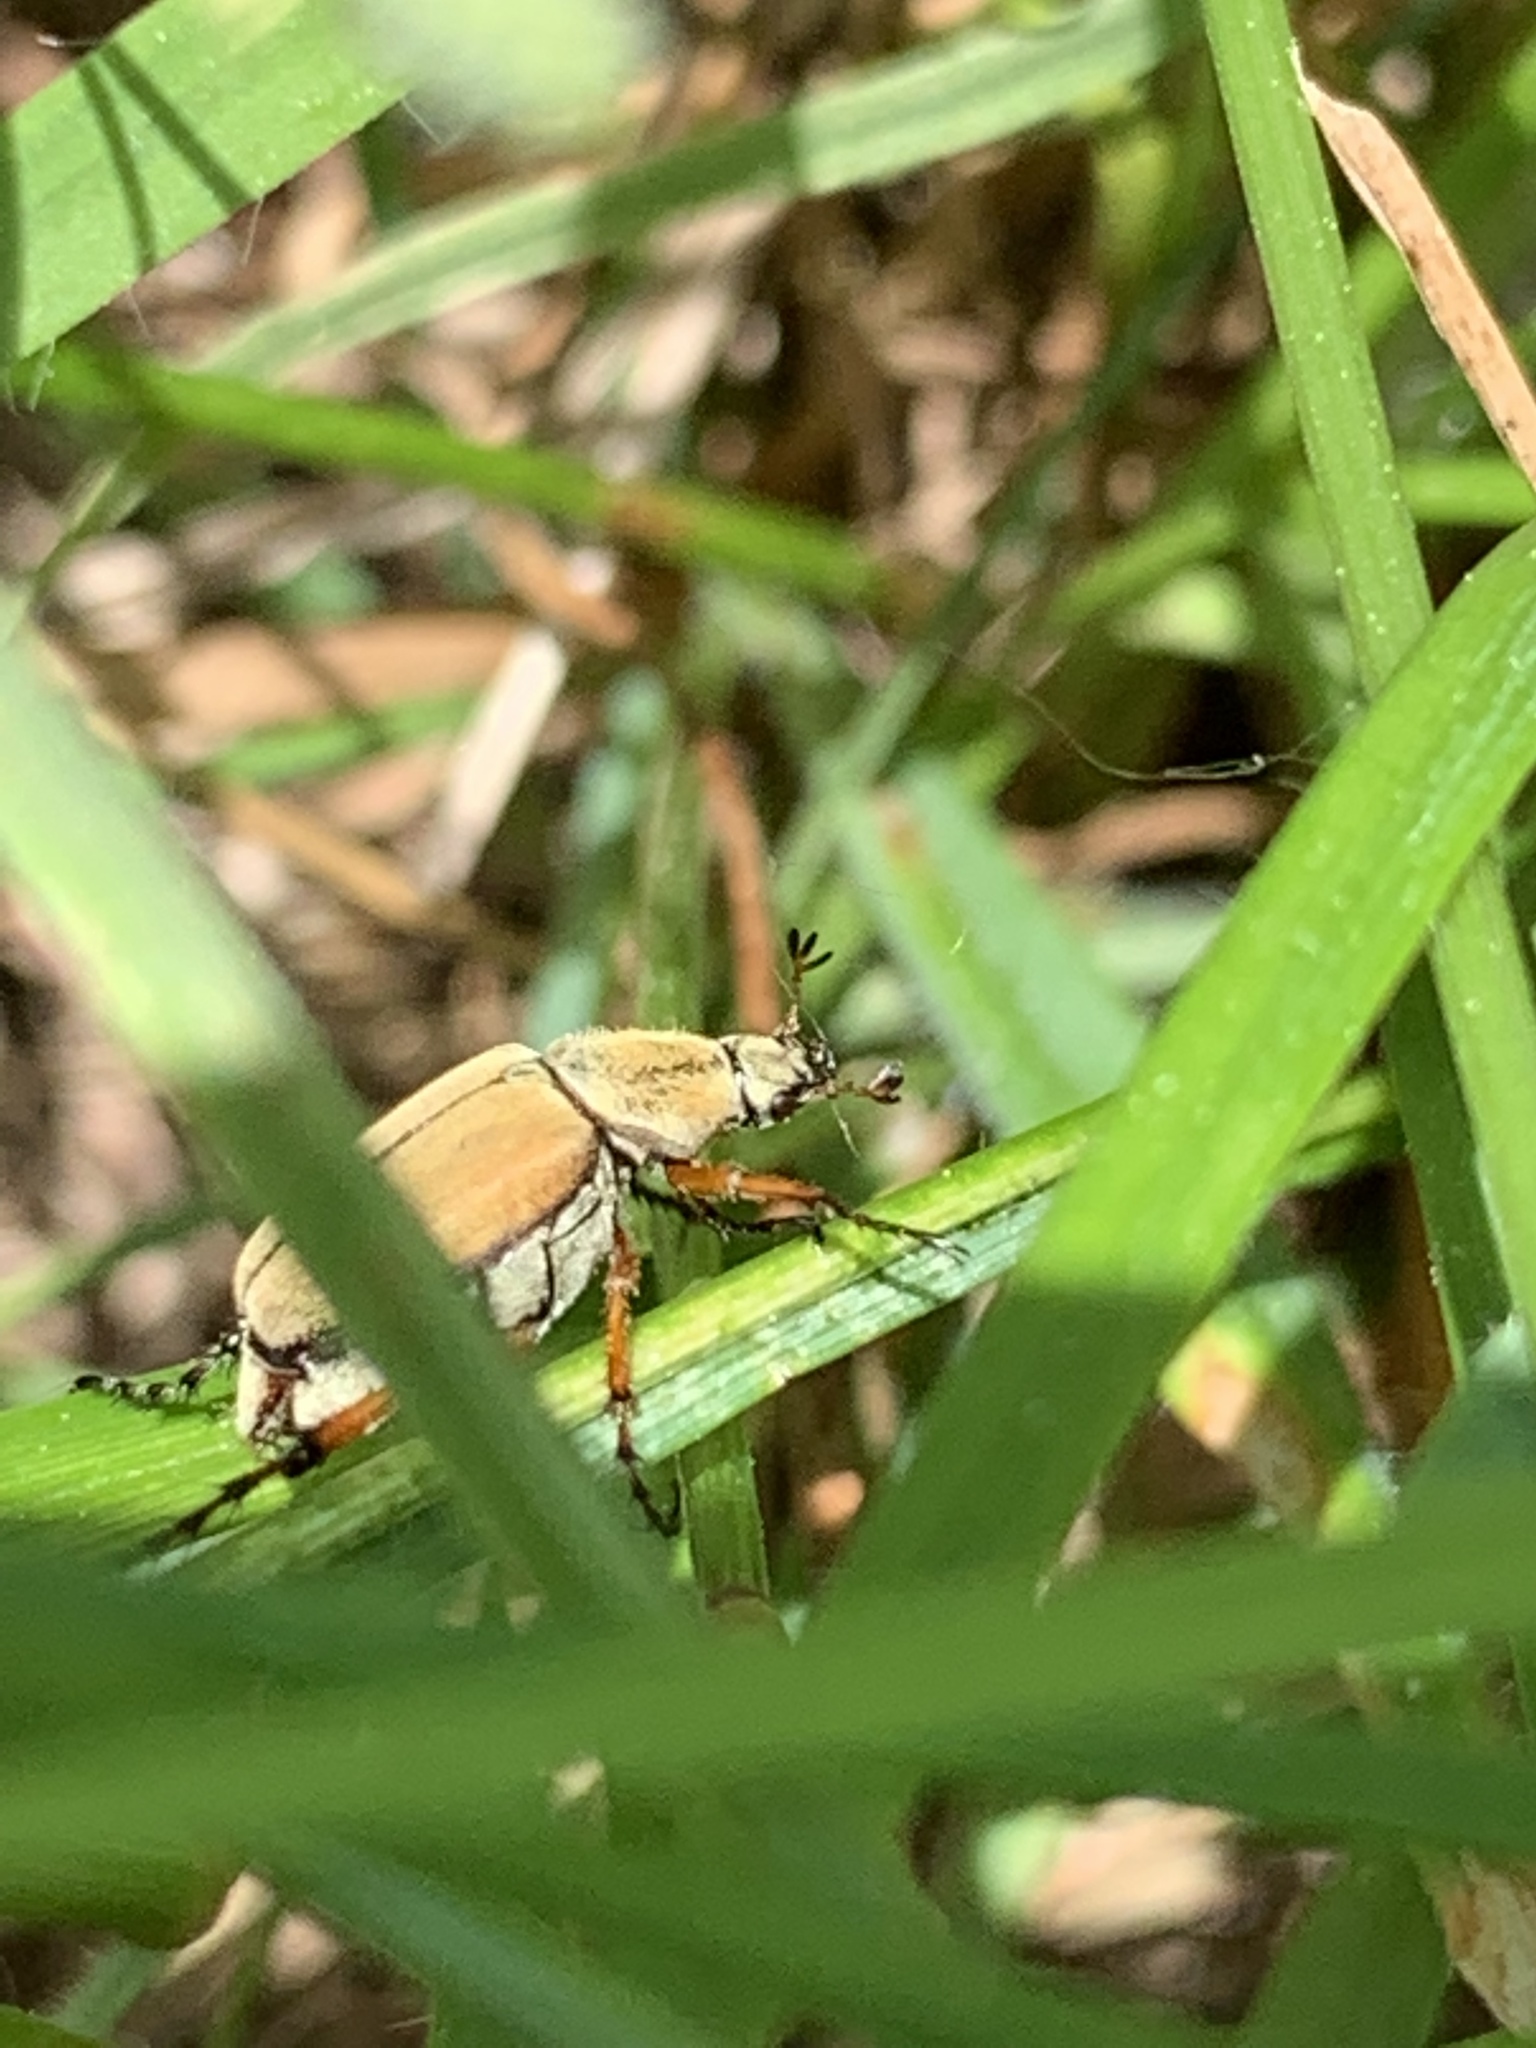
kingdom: Animalia
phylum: Arthropoda
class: Insecta
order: Coleoptera
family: Scarabaeidae
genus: Macrodactylus
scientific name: Macrodactylus subspinosus
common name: American rose chafer
